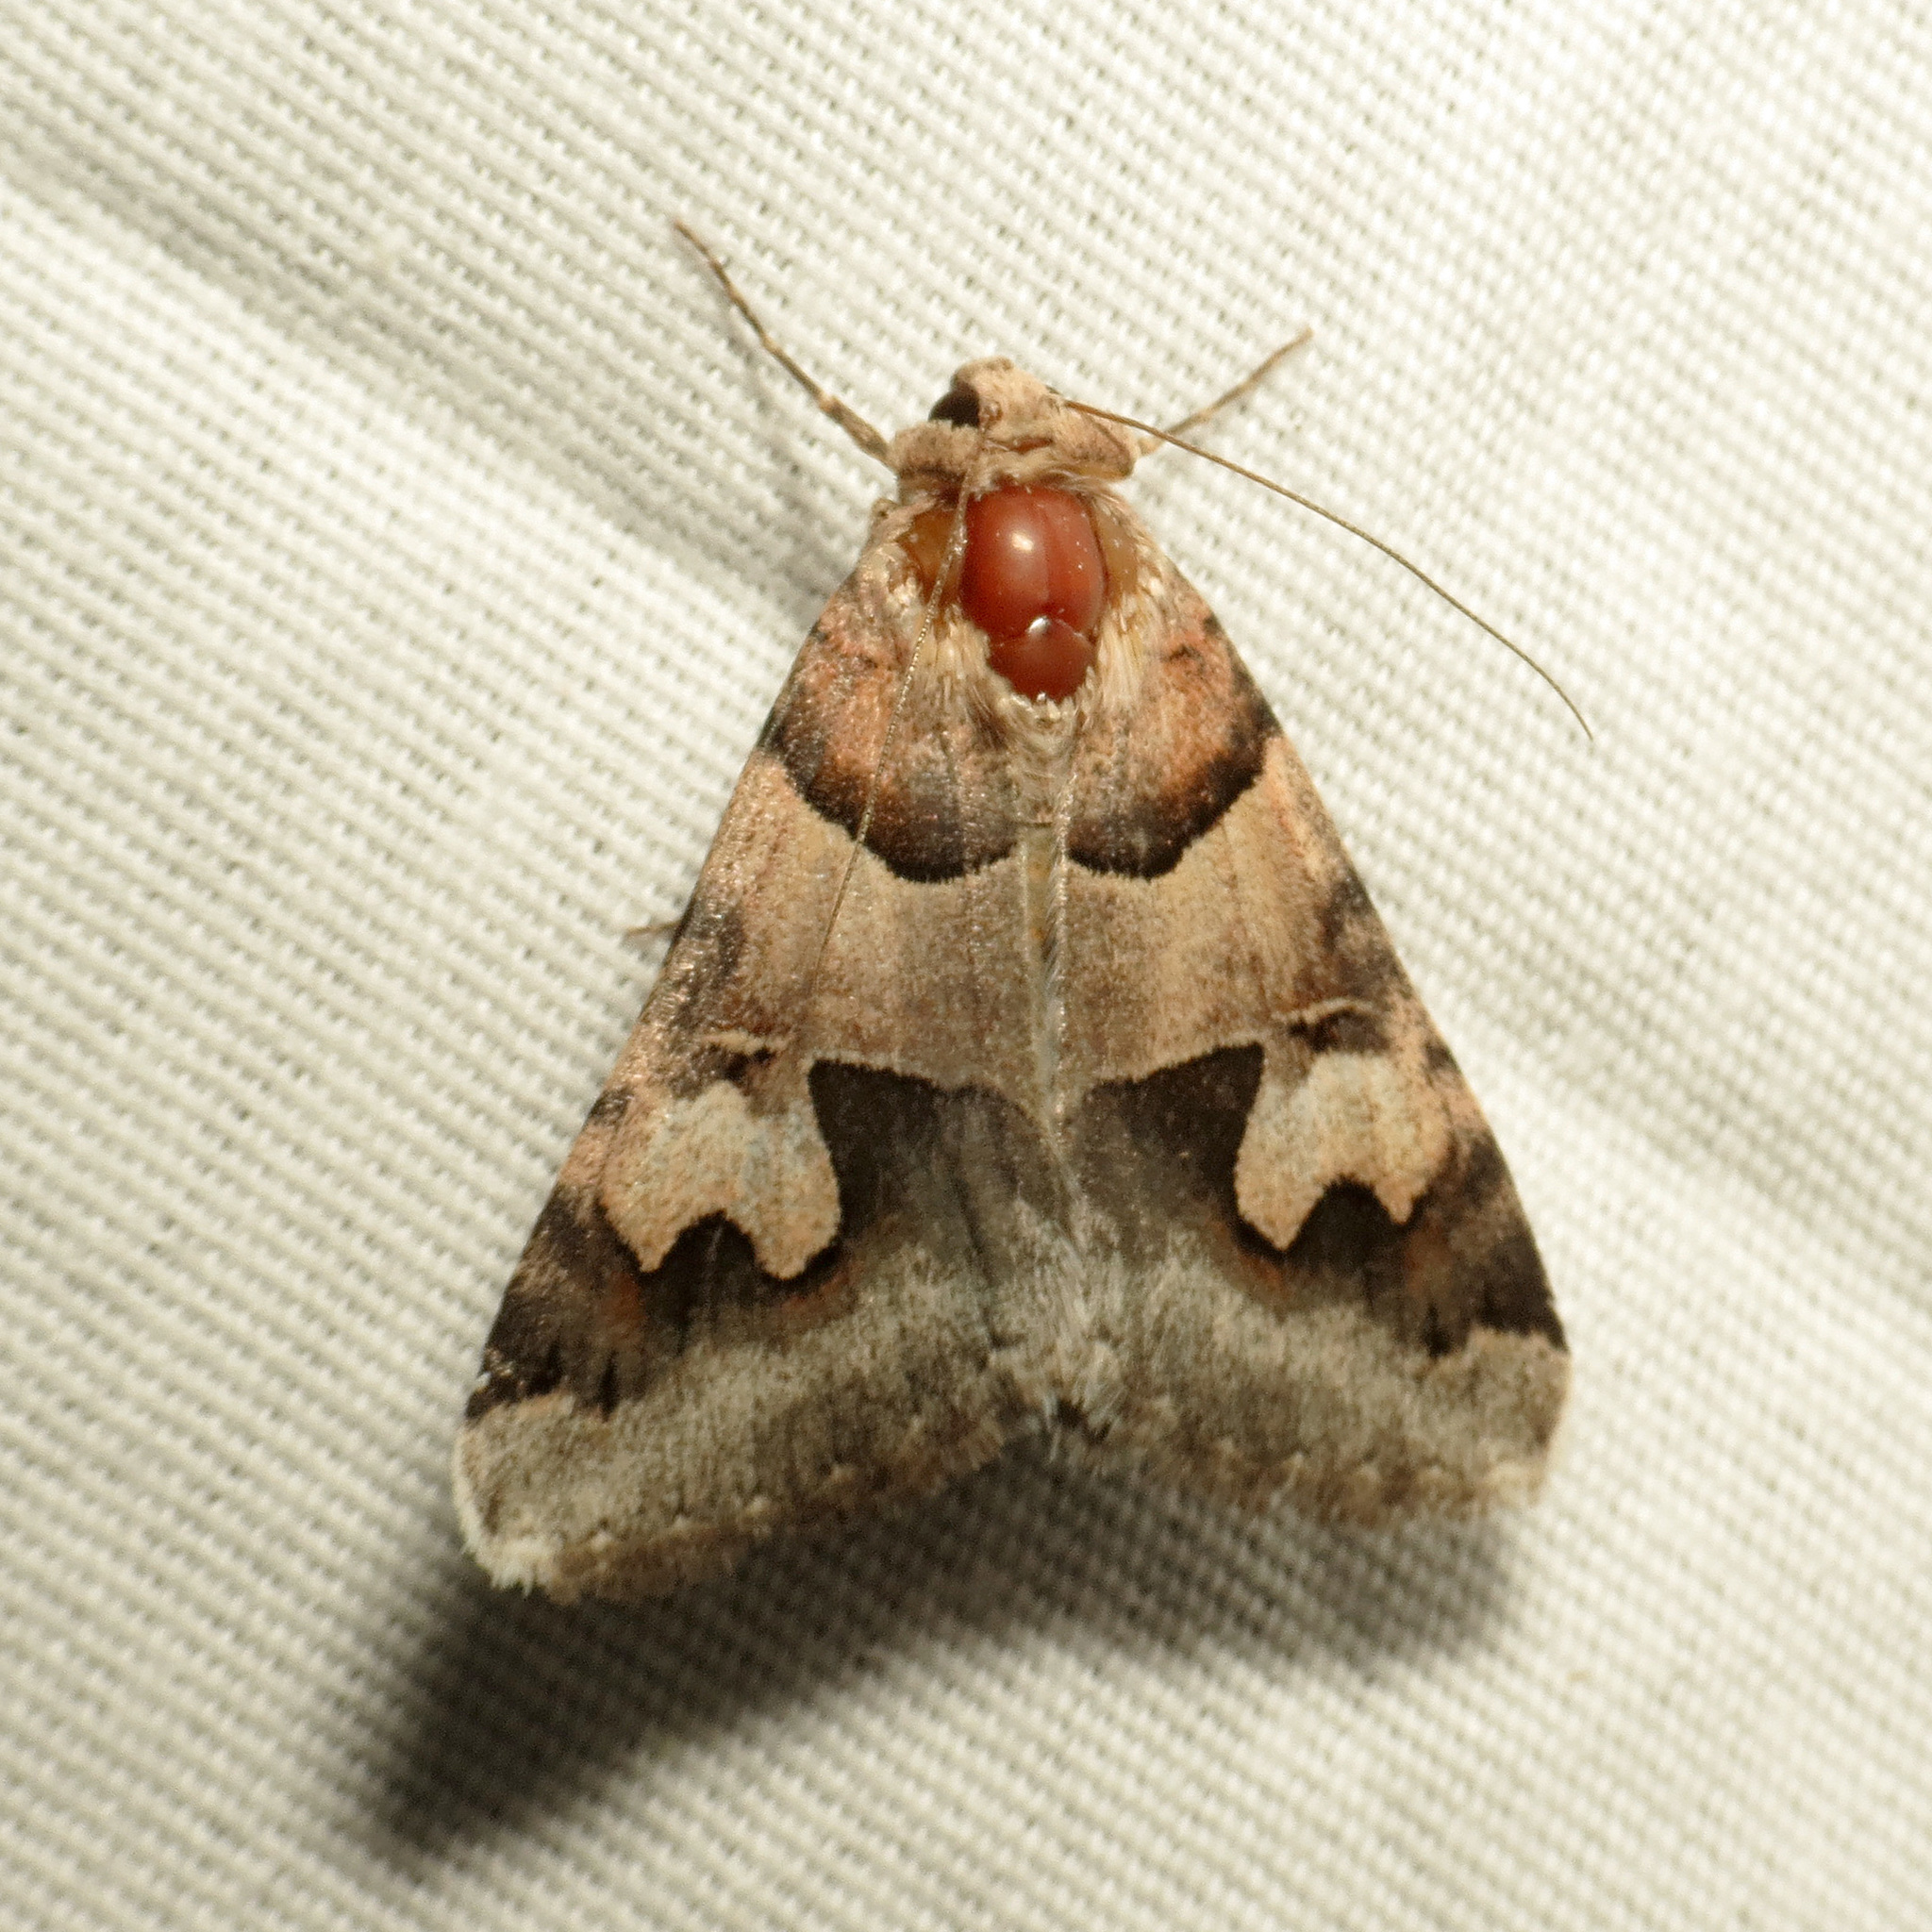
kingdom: Animalia
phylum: Arthropoda
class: Insecta
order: Lepidoptera
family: Erebidae
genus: Drasteria
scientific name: Drasteria pallescens
